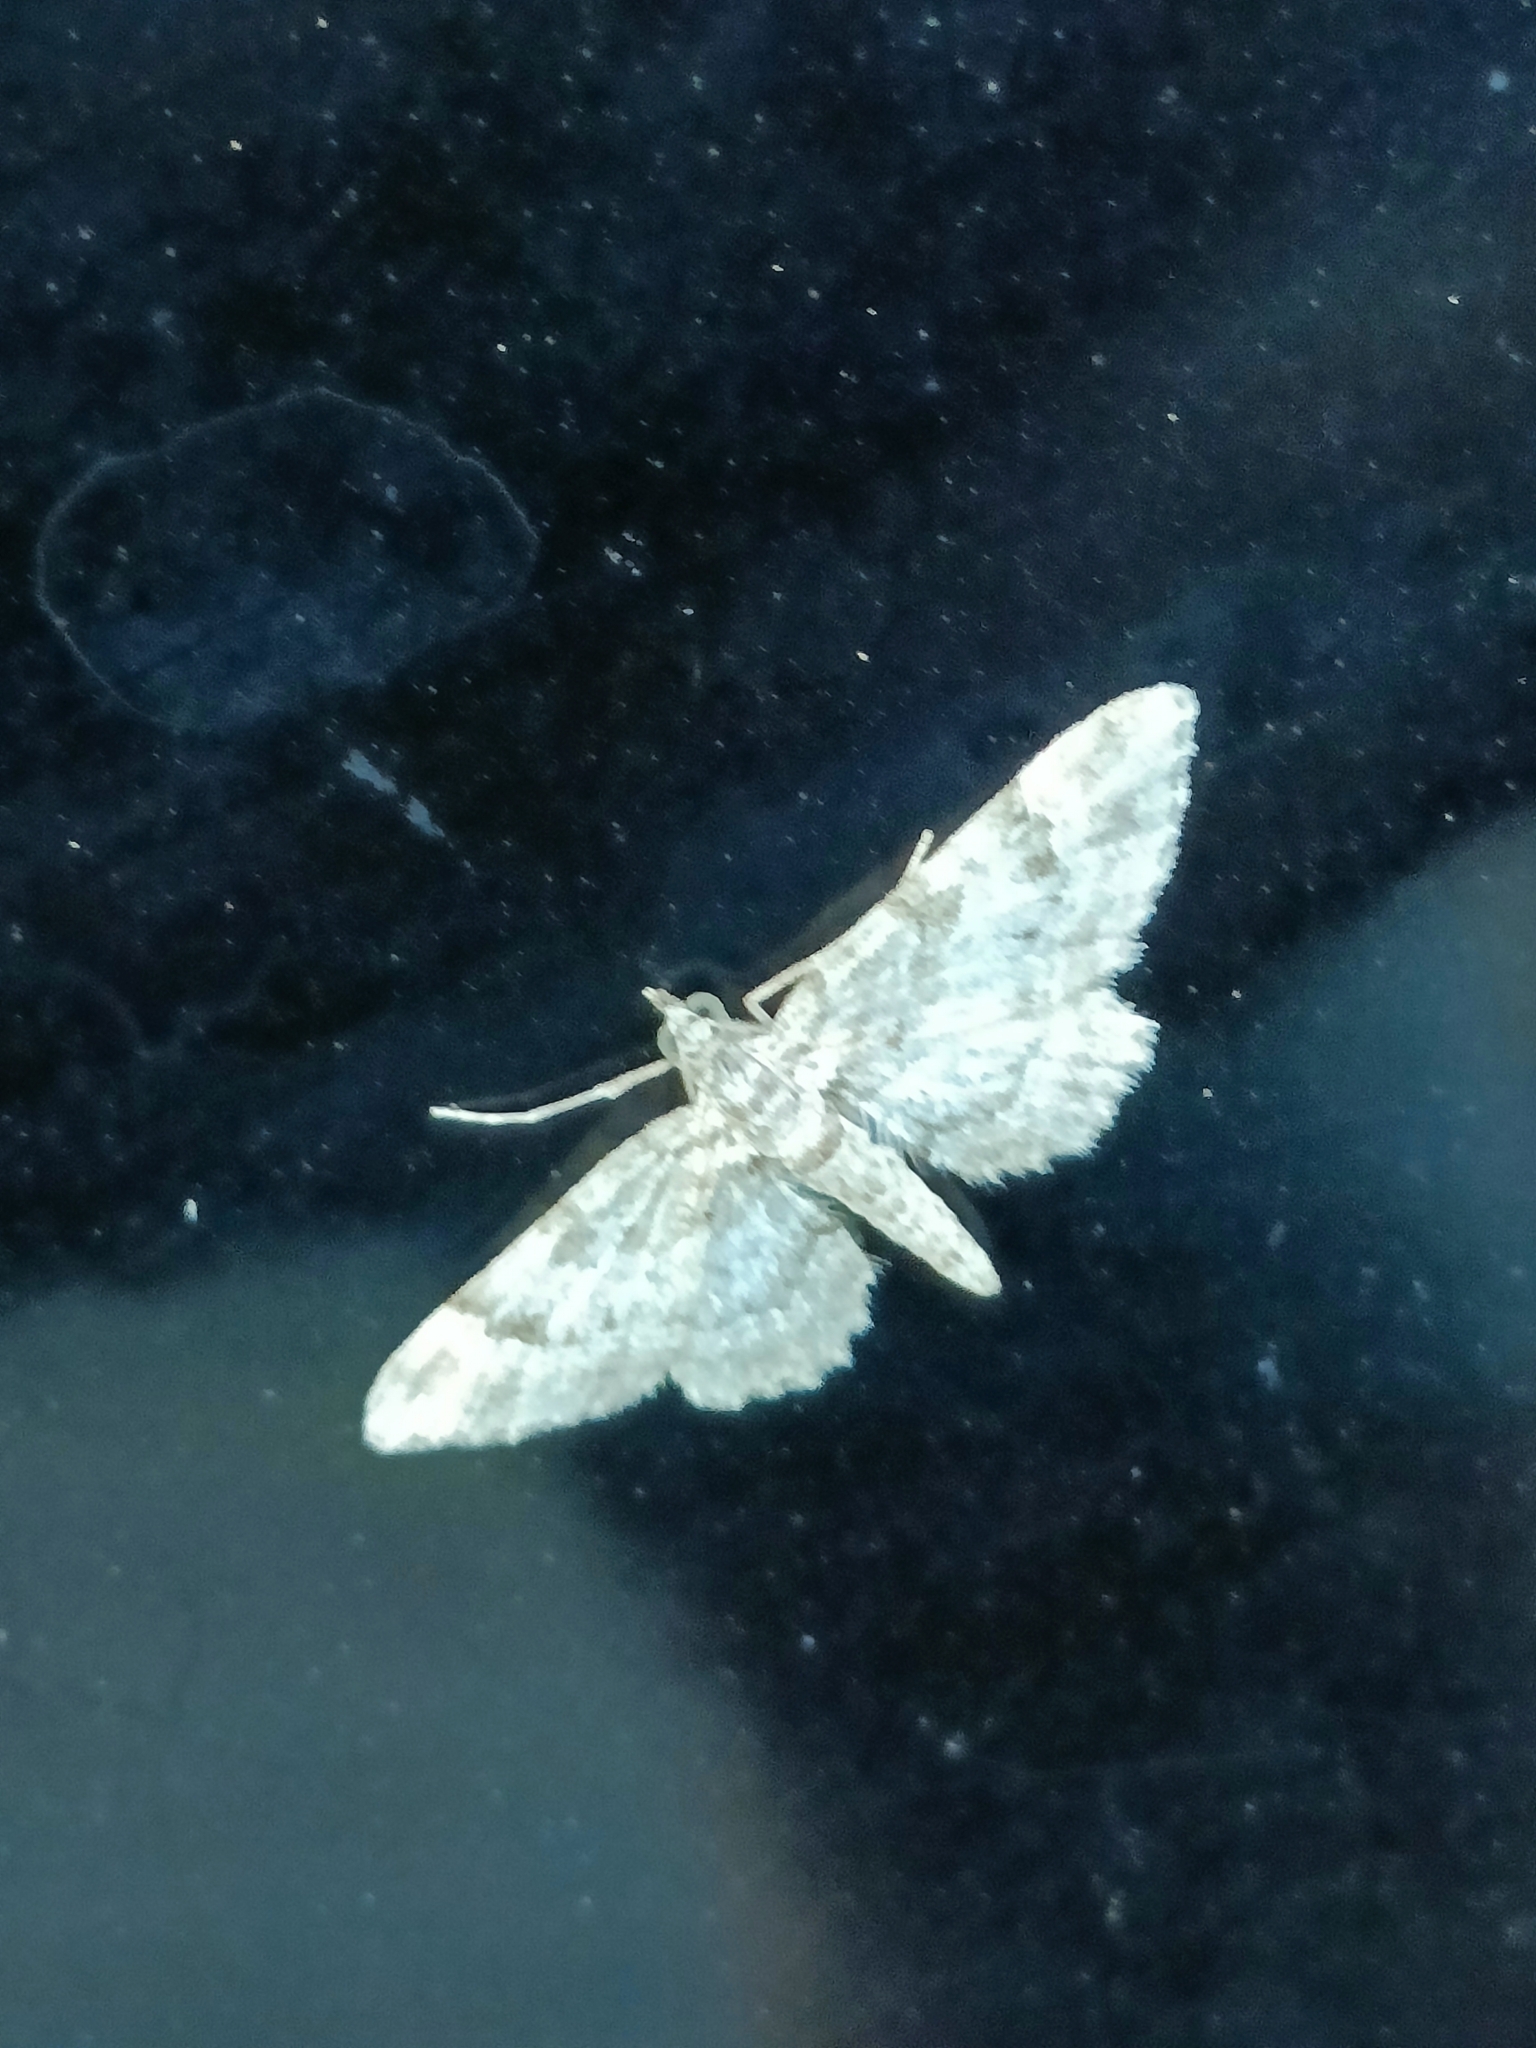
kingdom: Animalia
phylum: Arthropoda
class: Insecta
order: Lepidoptera
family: Geometridae
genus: Gymnoscelis
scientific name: Gymnoscelis rufifasciata
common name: Double-striped pug
